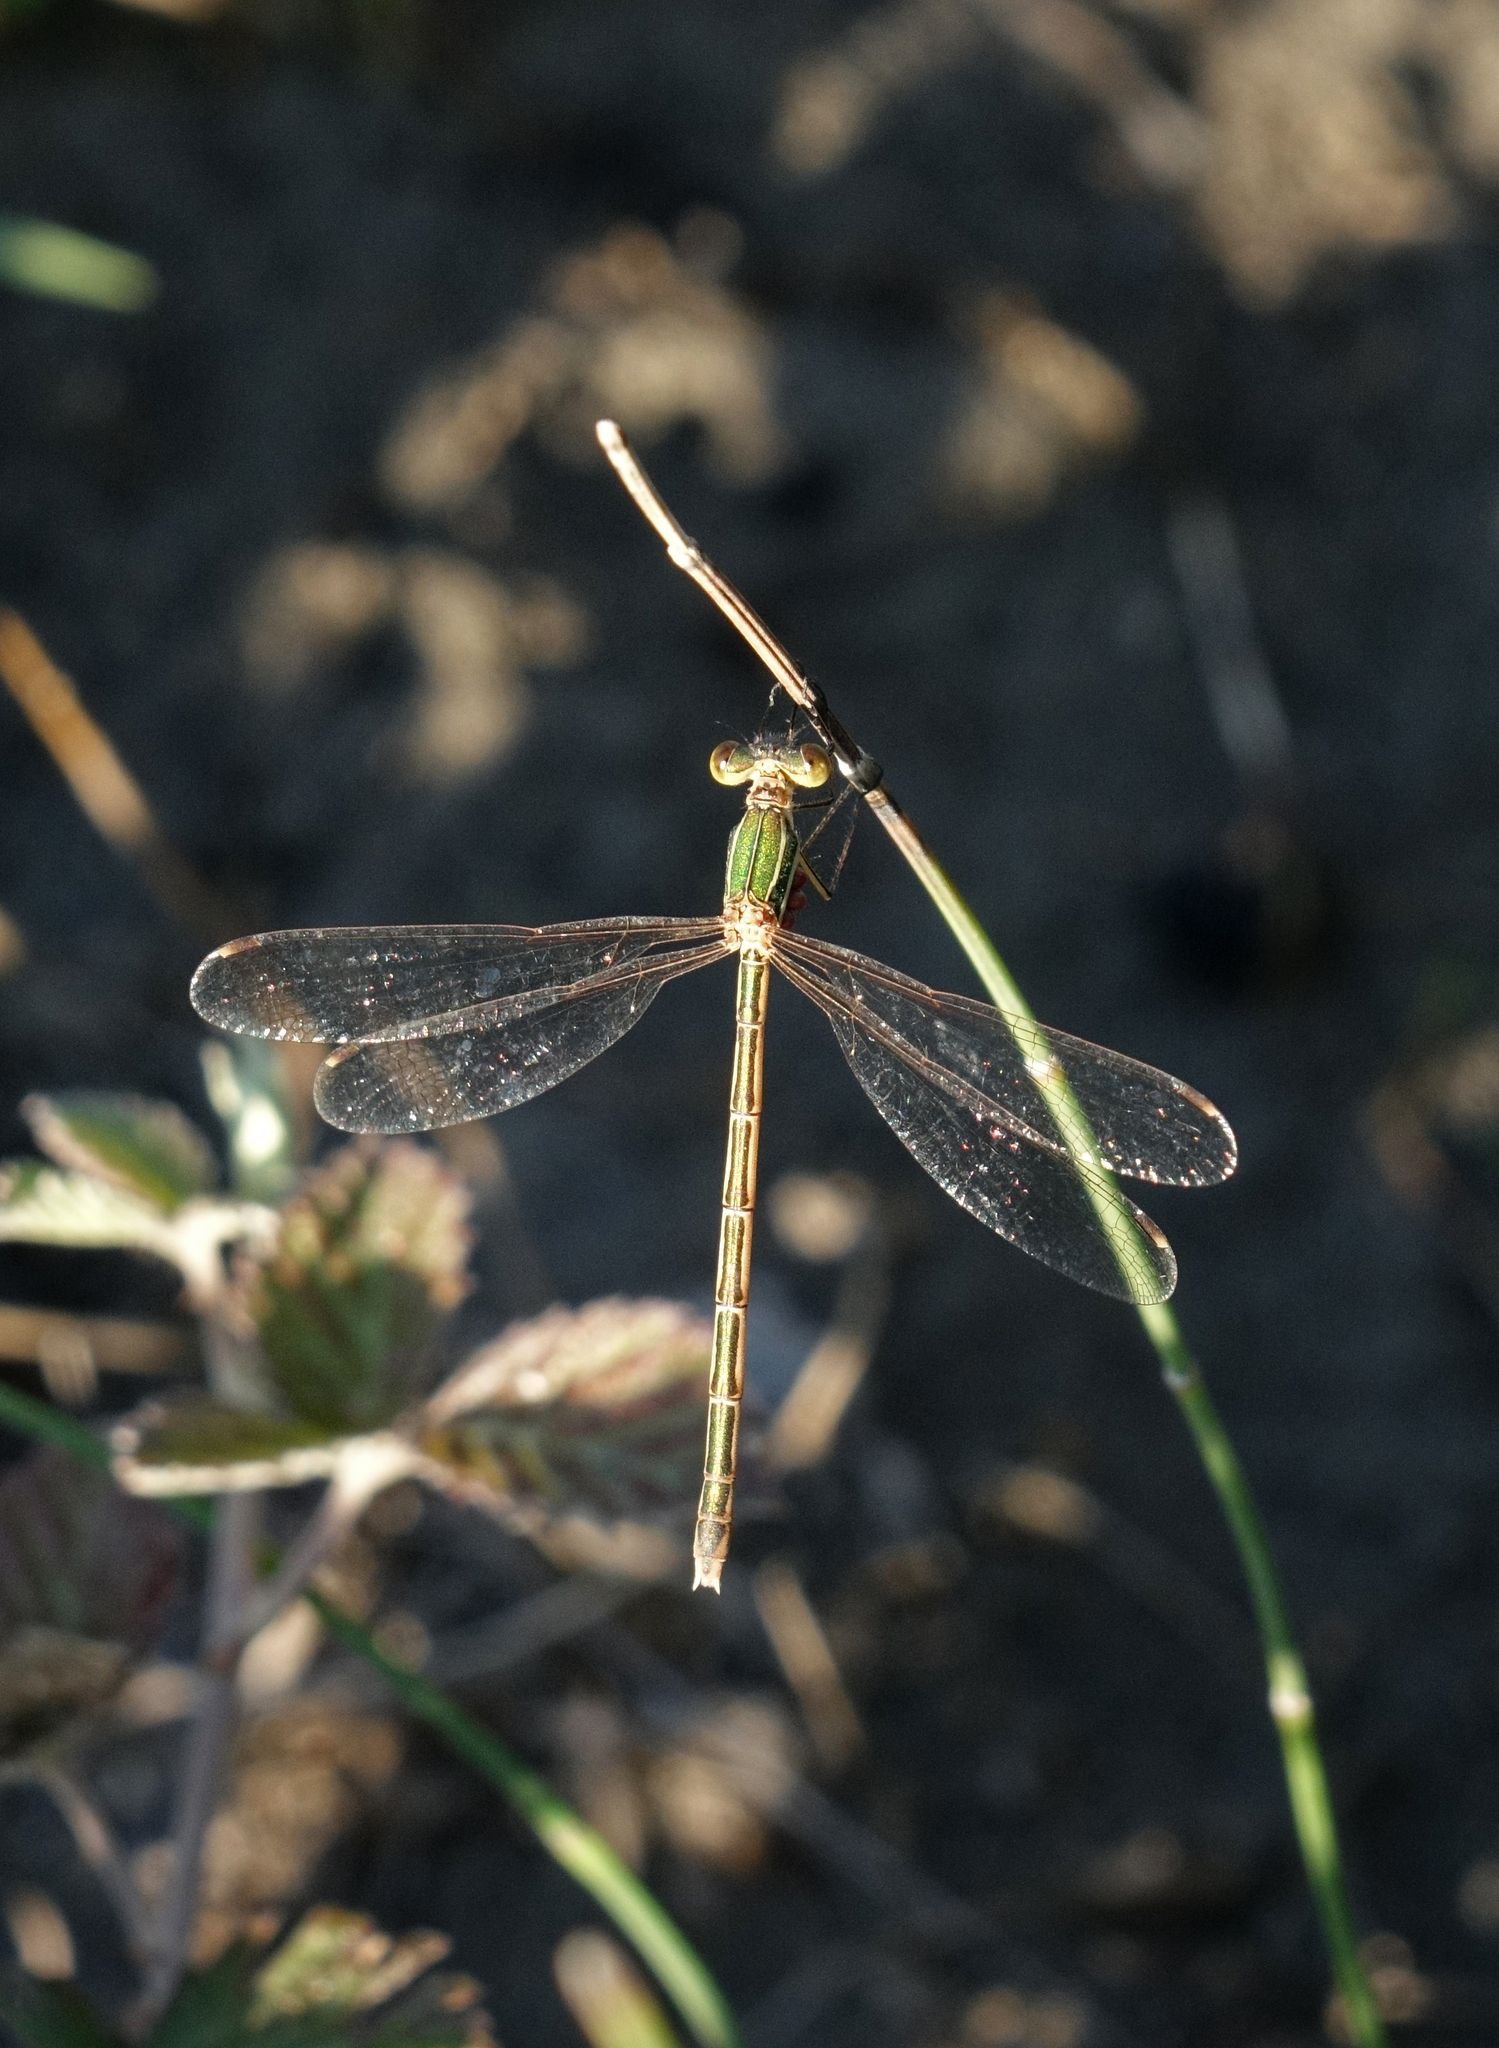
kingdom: Animalia
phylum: Arthropoda
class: Insecta
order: Odonata
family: Lestidae
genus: Lestes
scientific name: Lestes barbarus
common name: Migrant spreadwing
